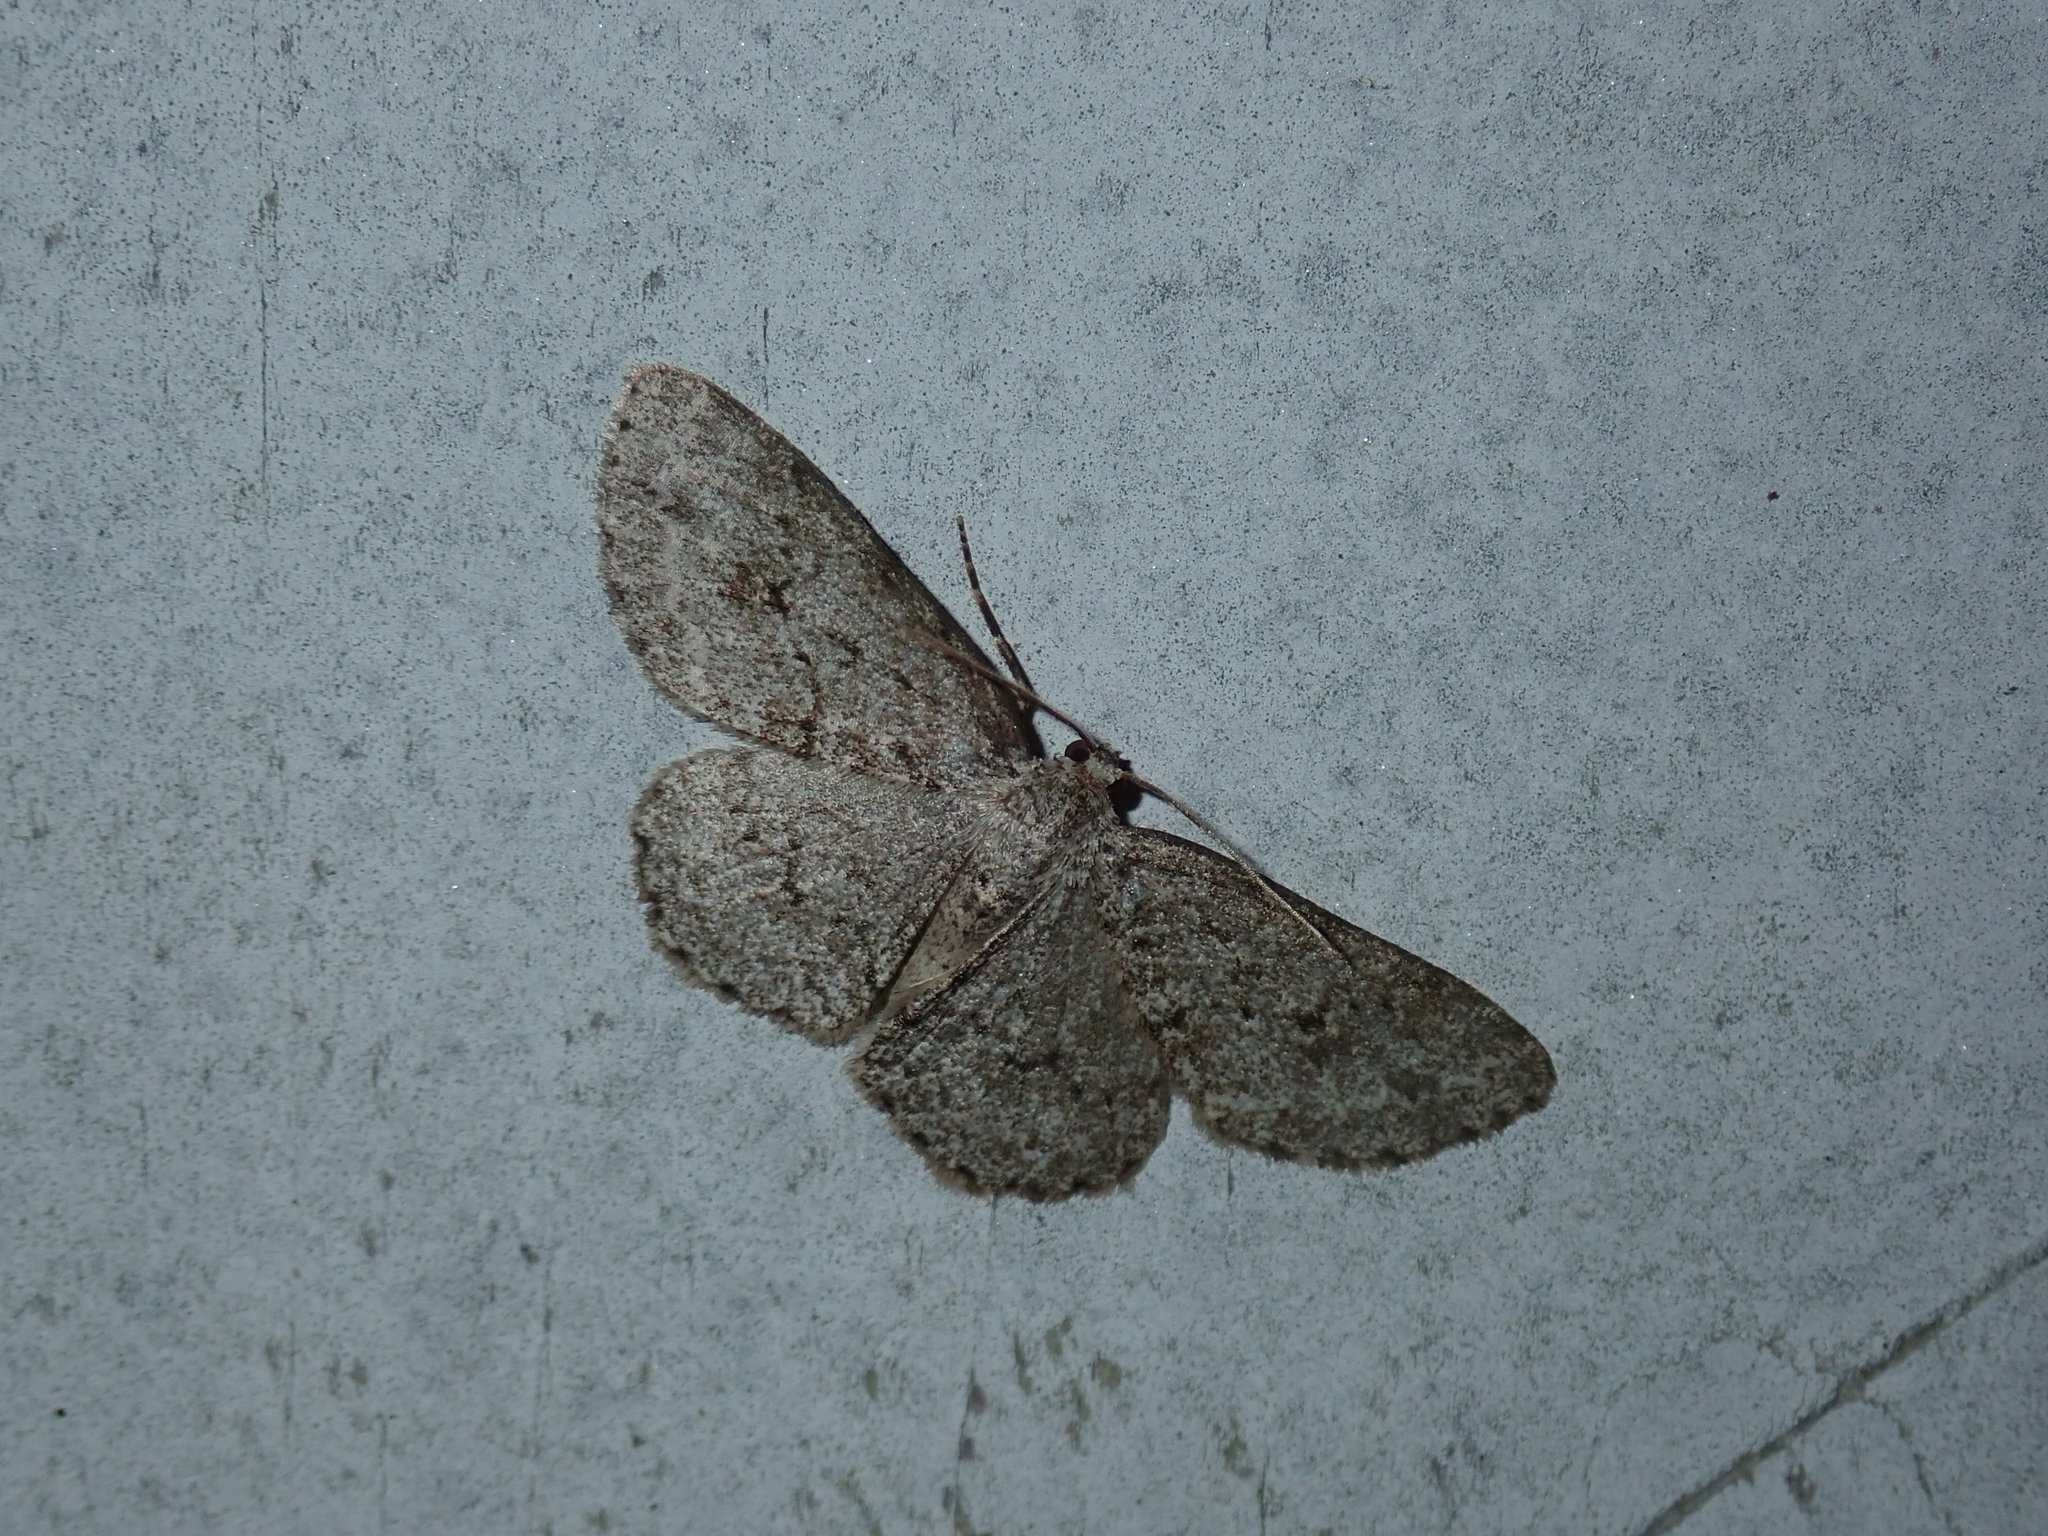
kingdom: Animalia
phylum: Arthropoda
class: Insecta
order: Lepidoptera
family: Geometridae
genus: Ectropis
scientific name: Ectropis crepuscularia
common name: Engrailed
